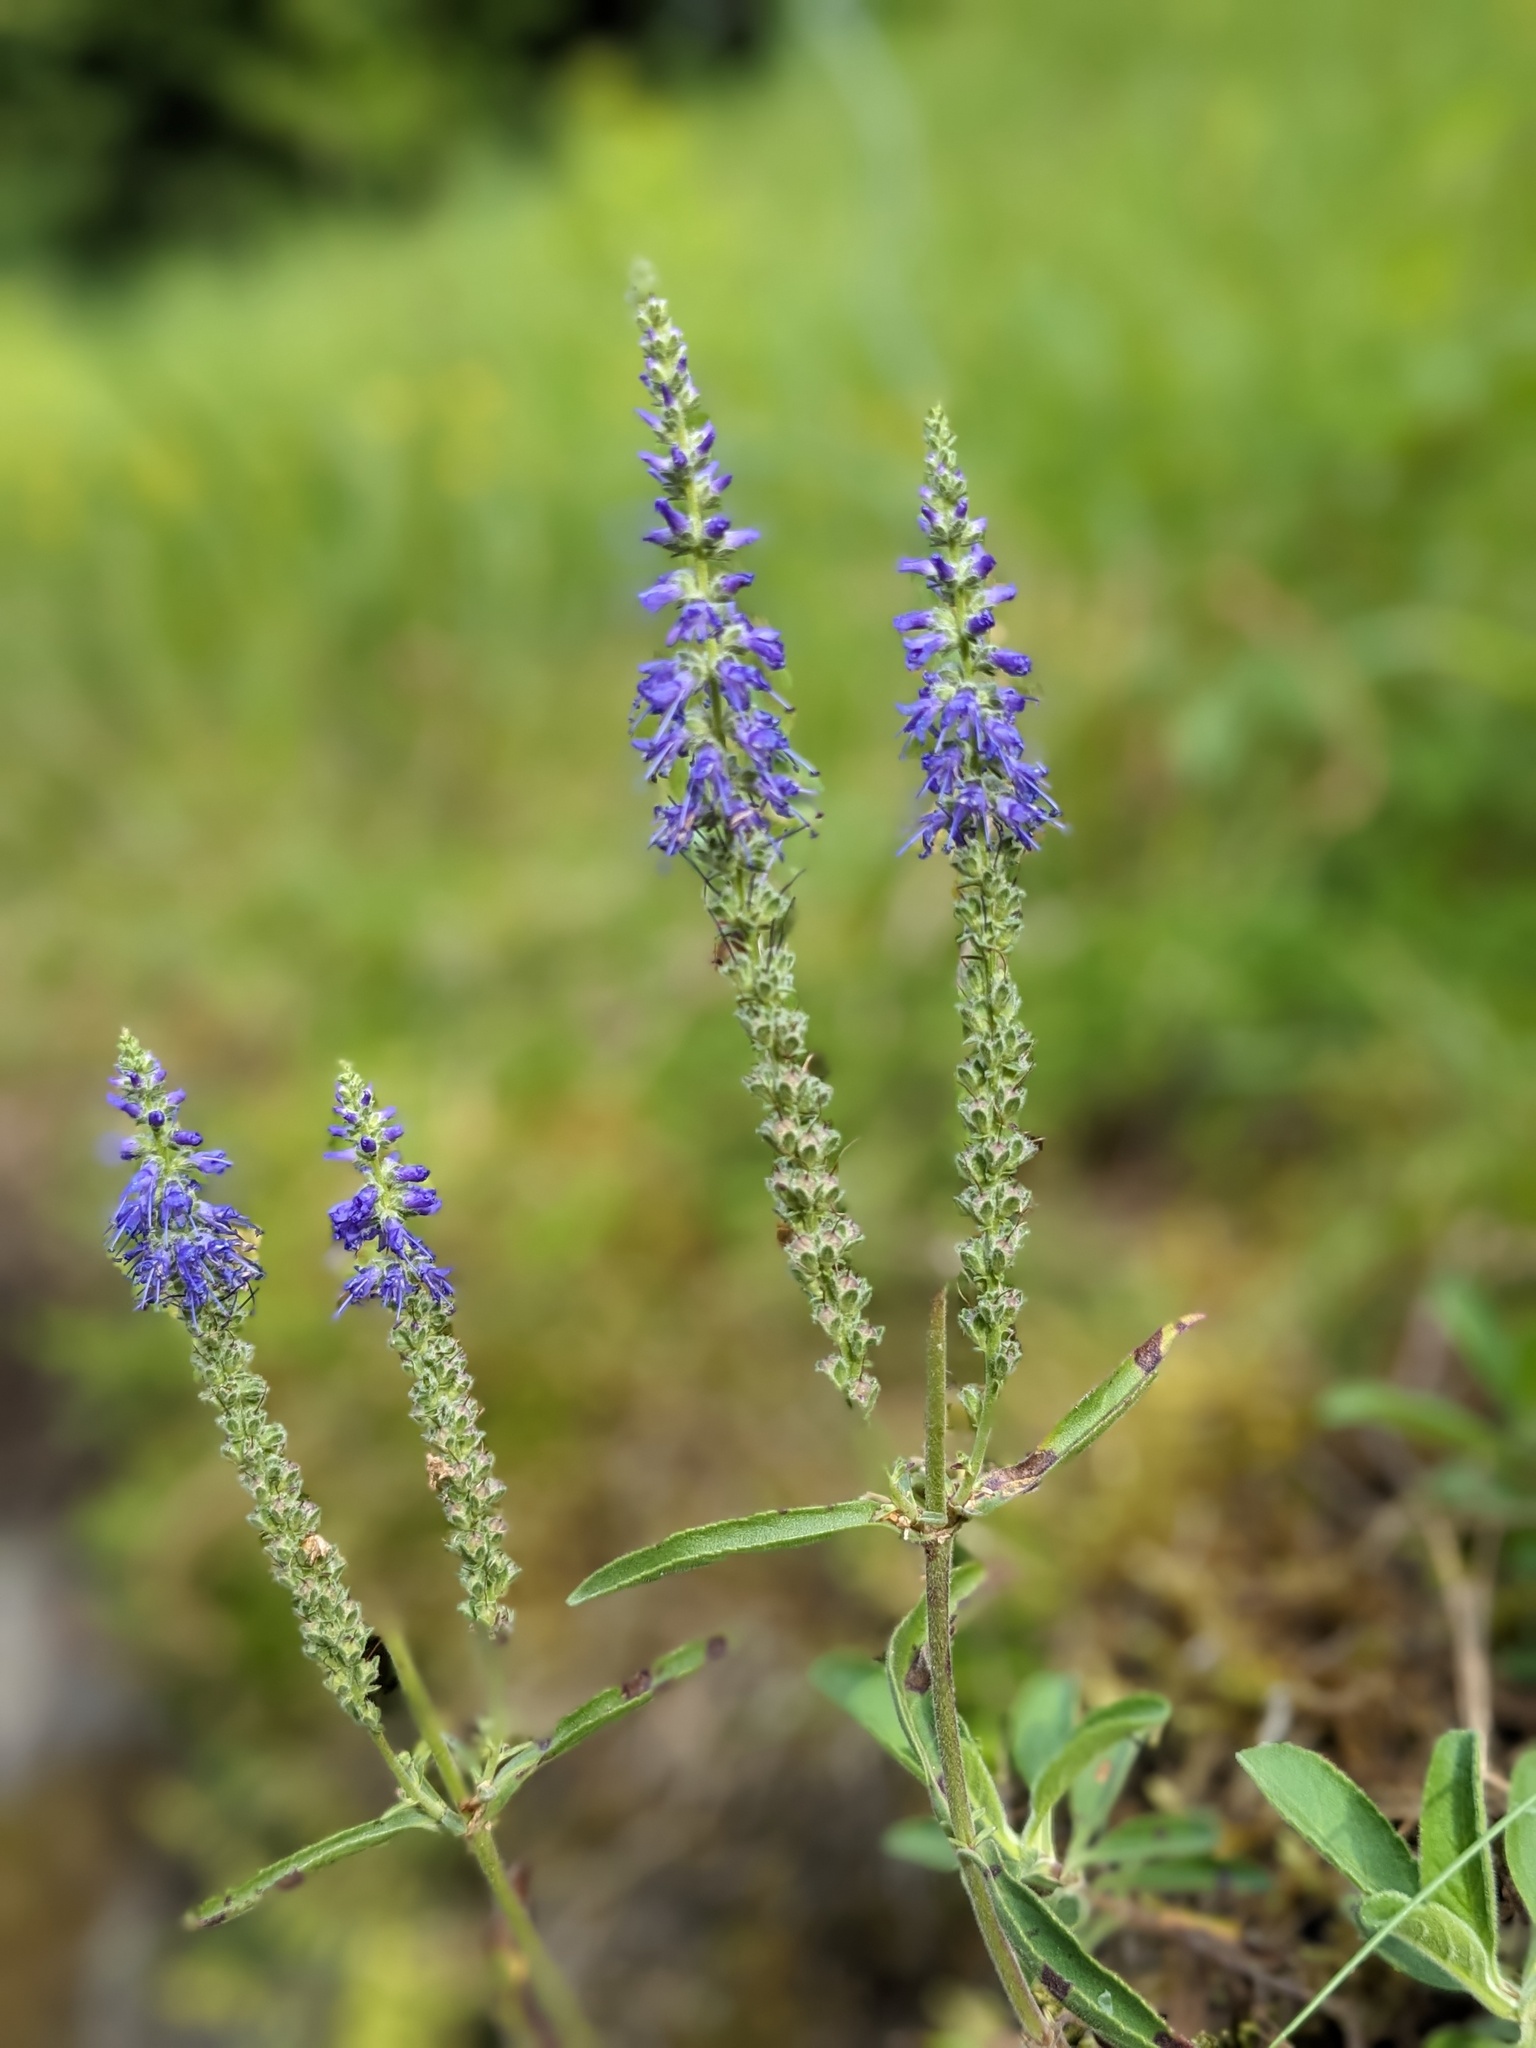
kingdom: Plantae
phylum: Tracheophyta
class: Magnoliopsida
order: Lamiales
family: Plantaginaceae
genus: Veronica
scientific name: Veronica spicata
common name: Spiked speedwell
